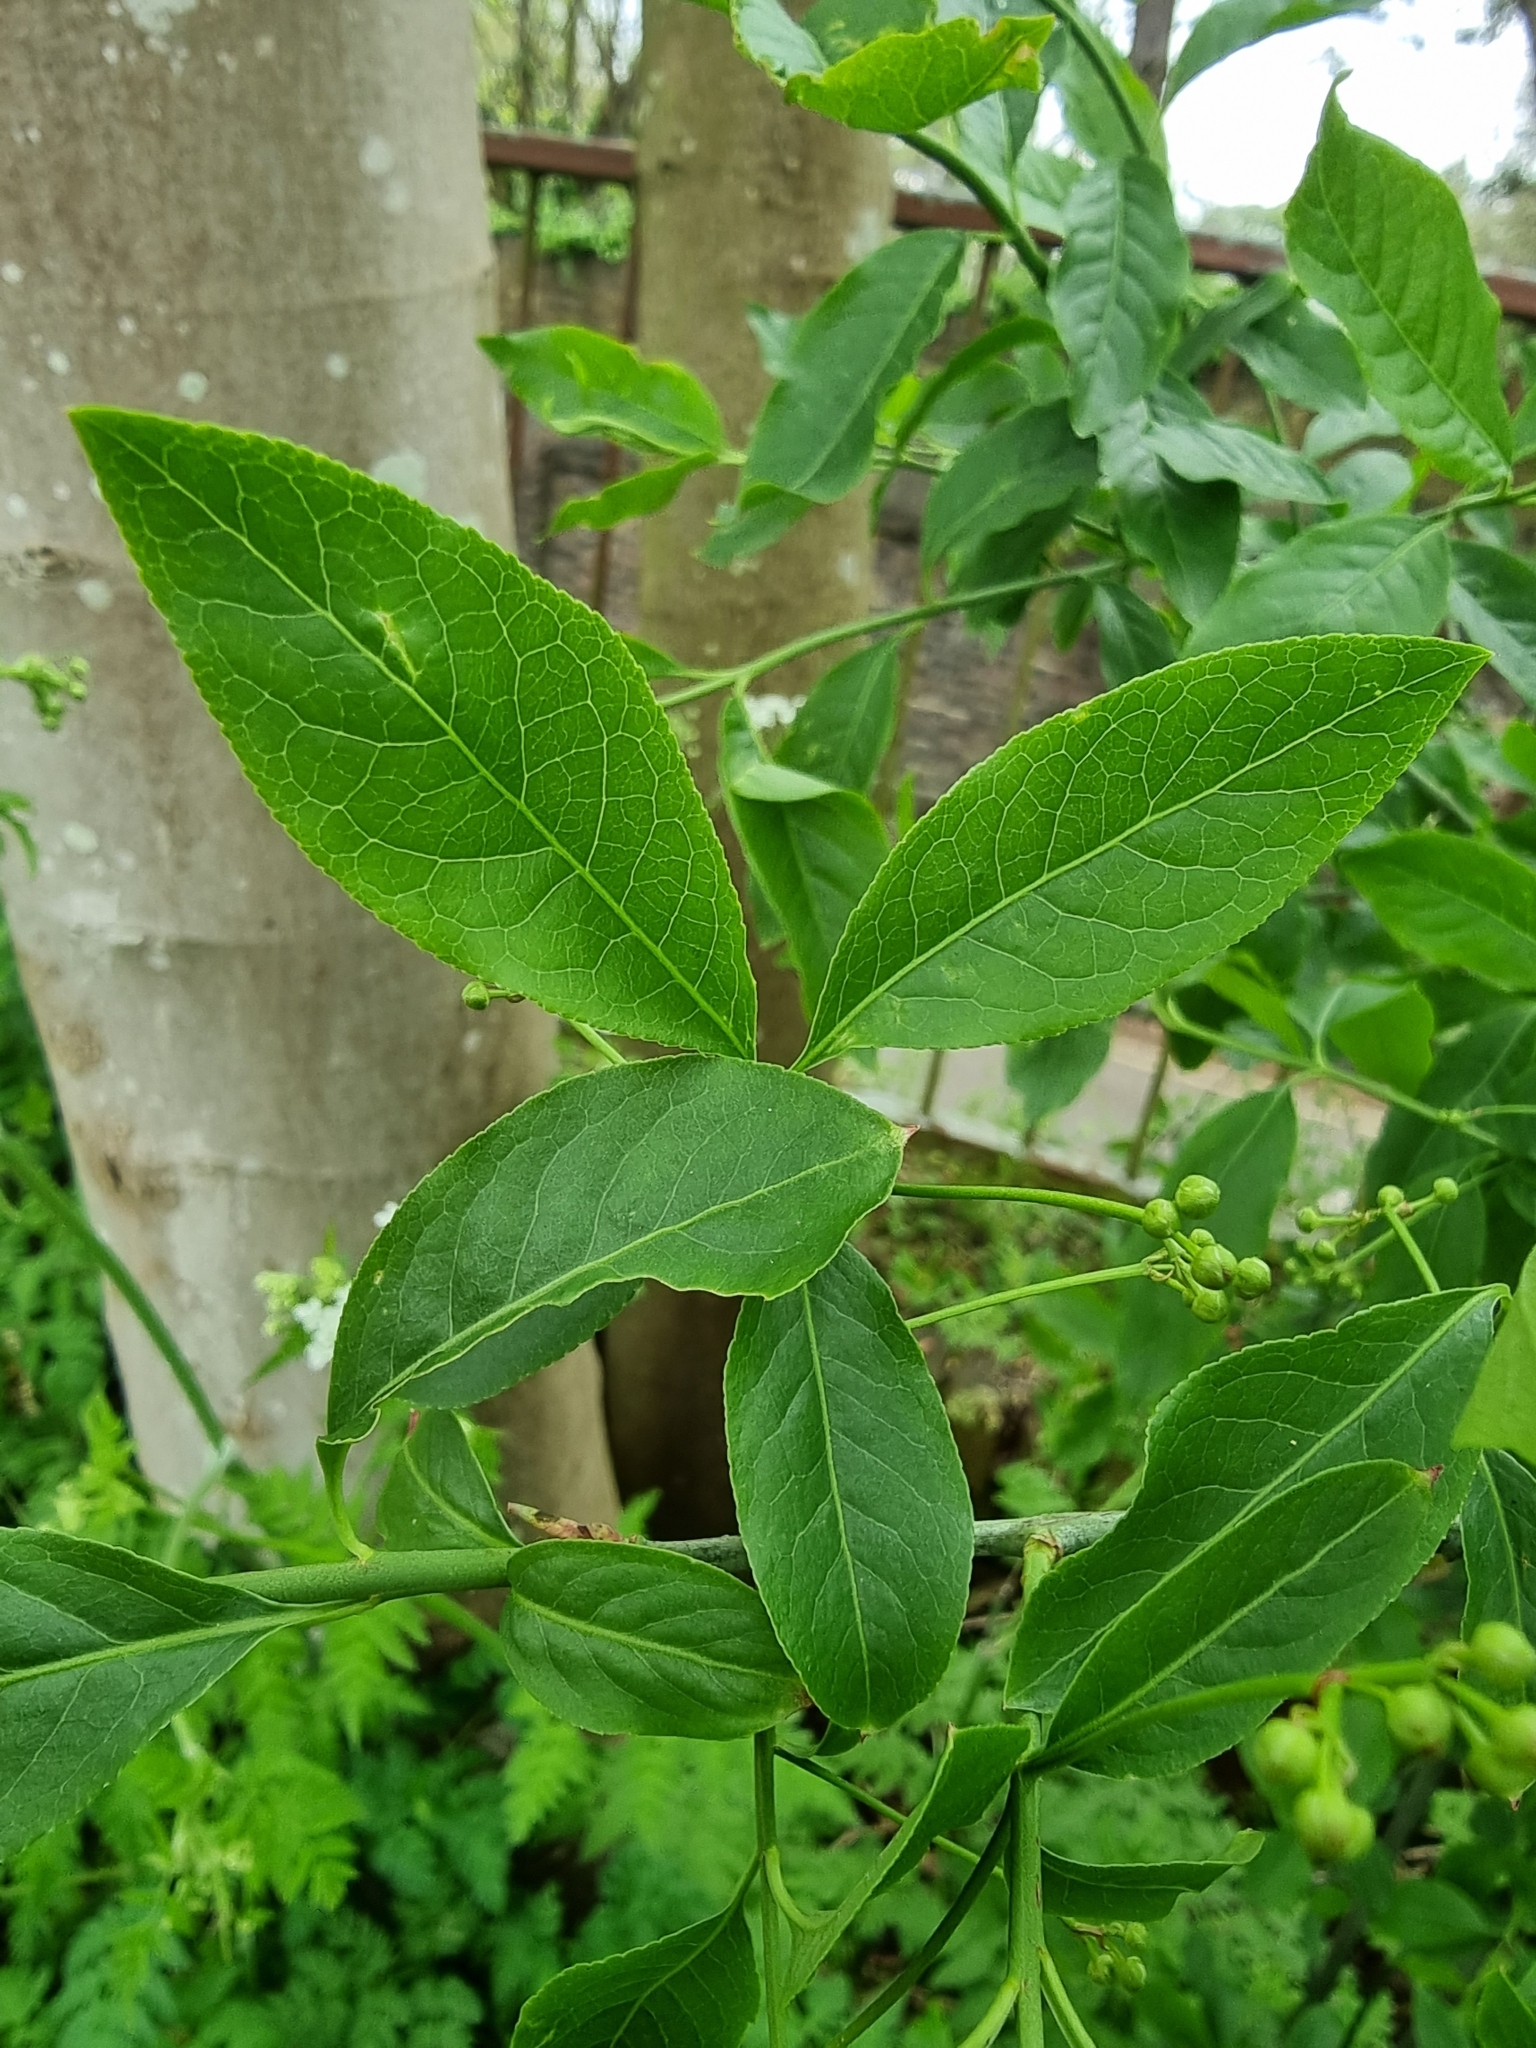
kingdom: Plantae
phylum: Tracheophyta
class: Magnoliopsida
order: Celastrales
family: Celastraceae
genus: Euonymus
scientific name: Euonymus europaeus
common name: Spindle
